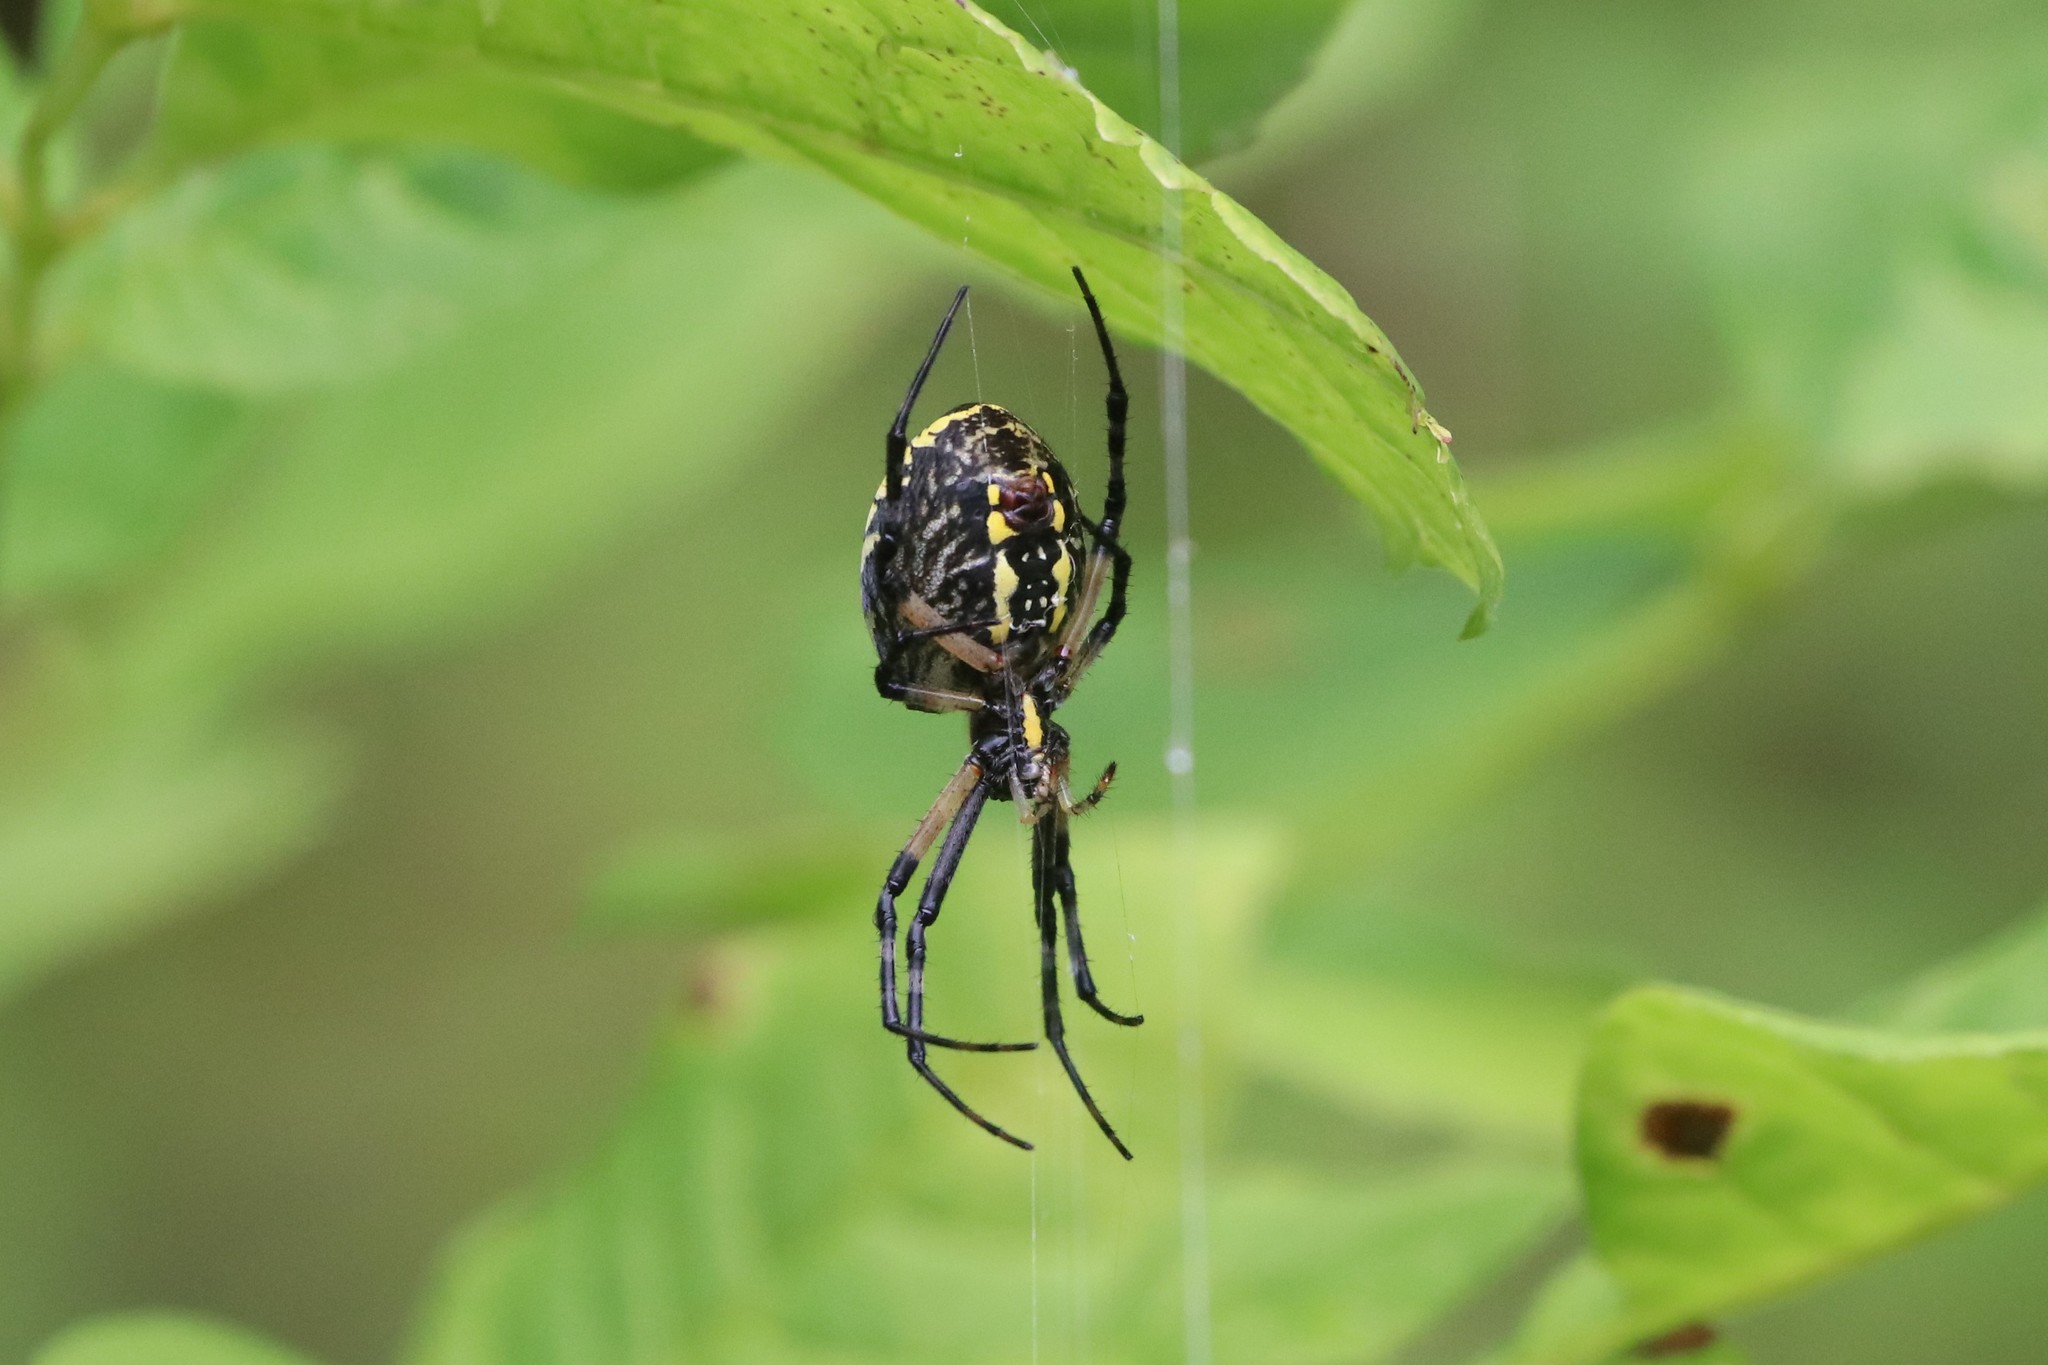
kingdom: Animalia
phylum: Arthropoda
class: Arachnida
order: Araneae
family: Araneidae
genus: Argiope
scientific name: Argiope aurantia
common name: Orb weavers
